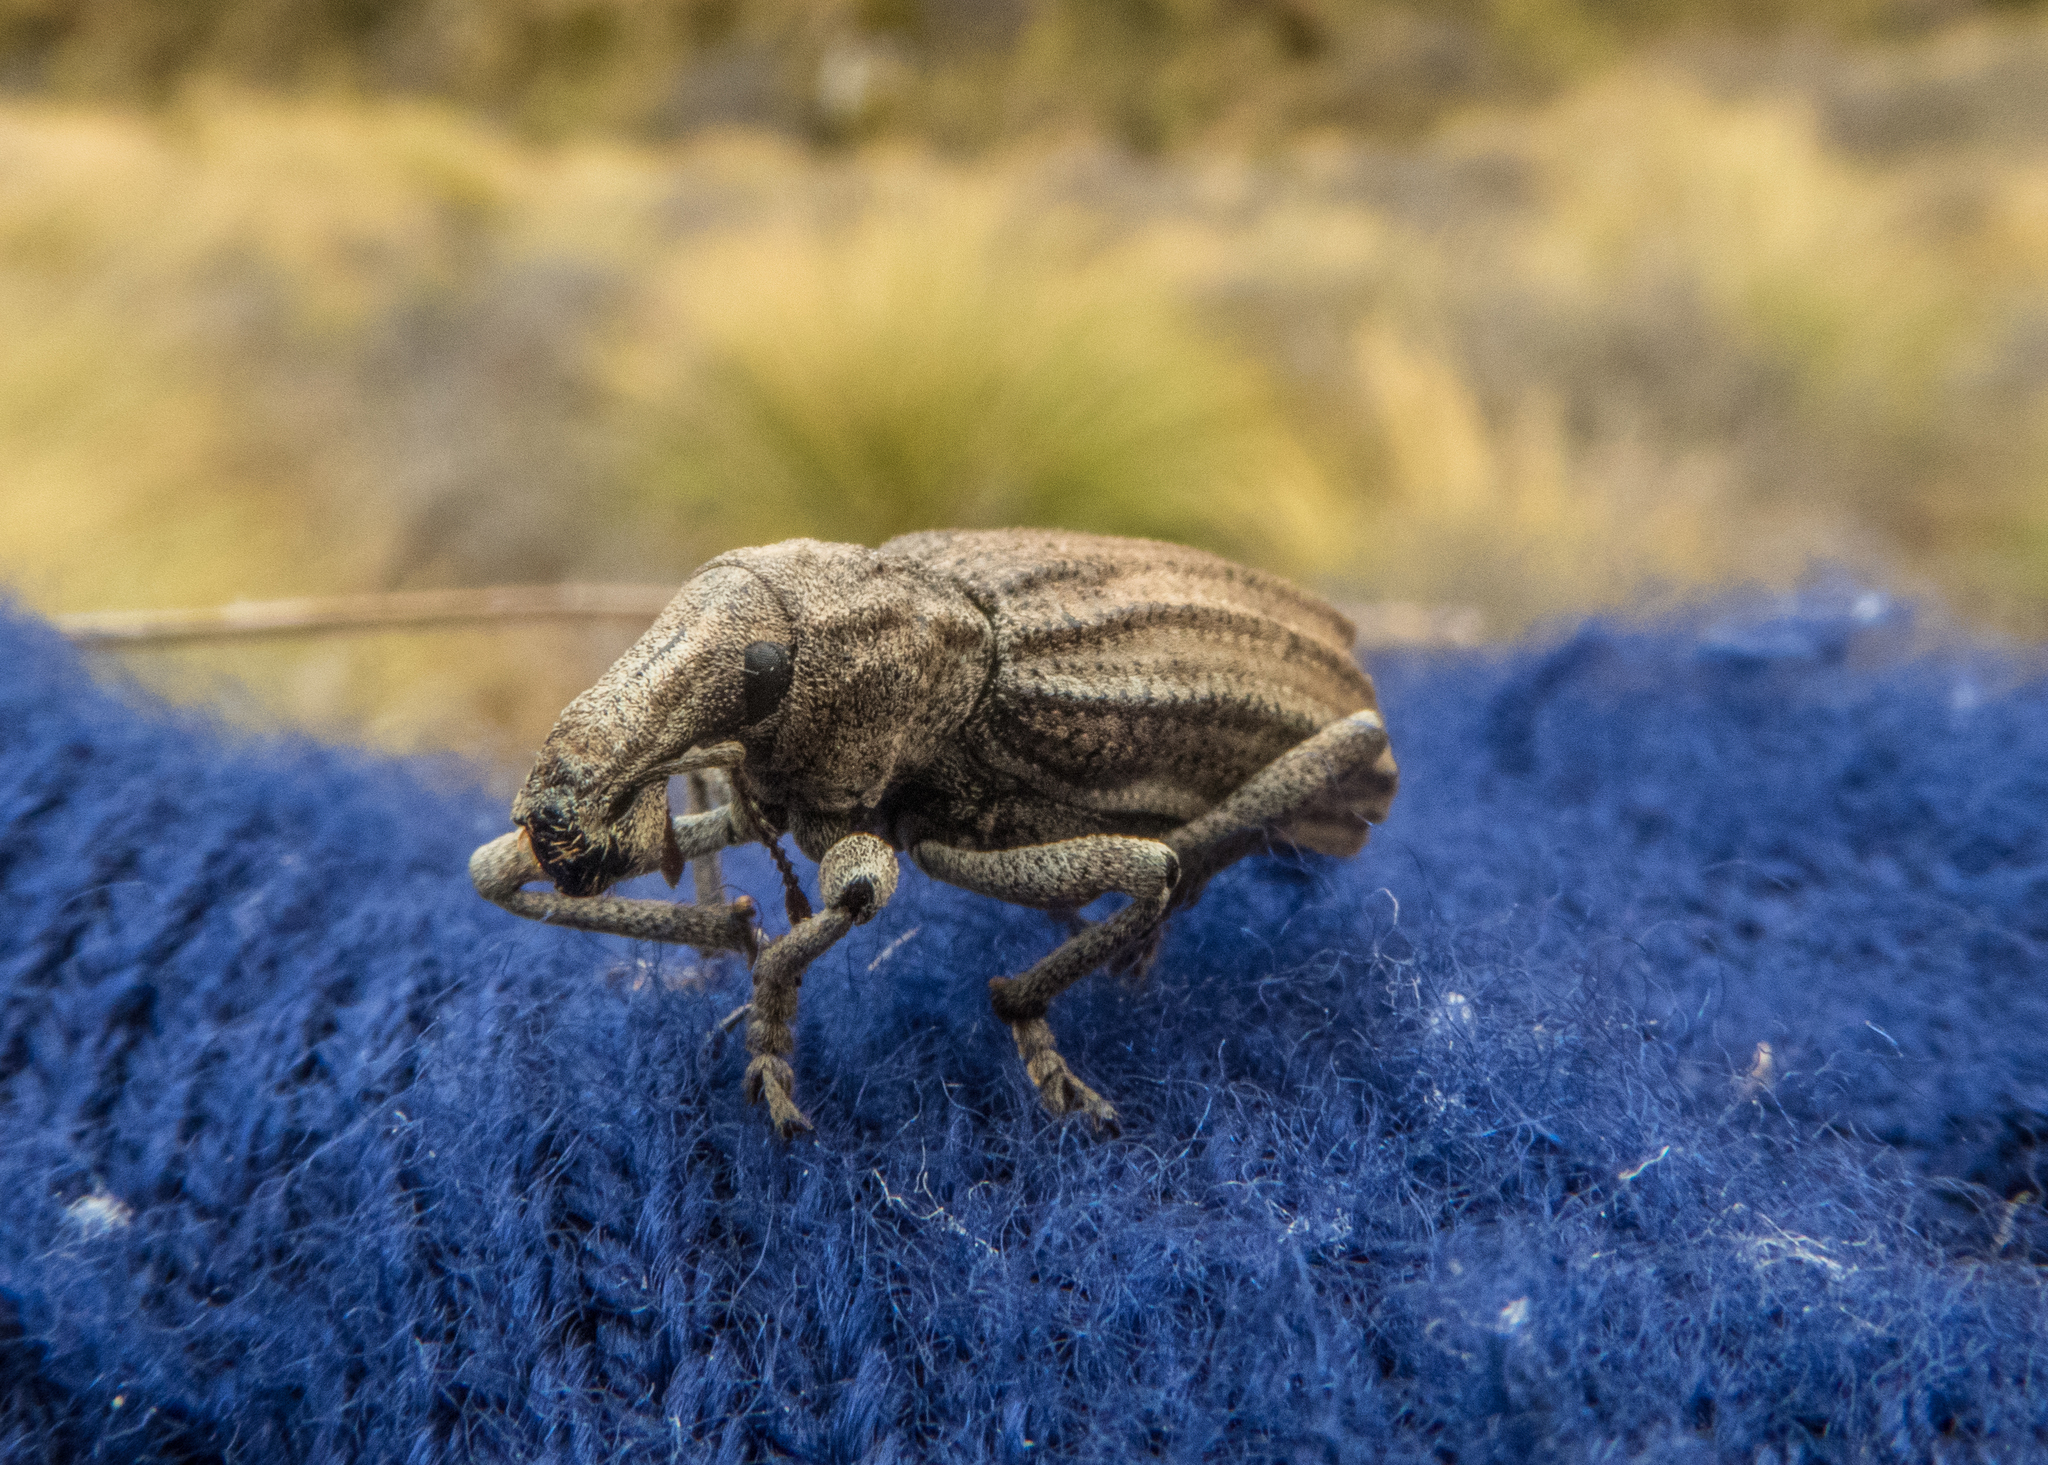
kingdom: Animalia
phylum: Arthropoda
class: Insecta
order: Coleoptera
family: Curculionidae
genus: Anagotus
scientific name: Anagotus
